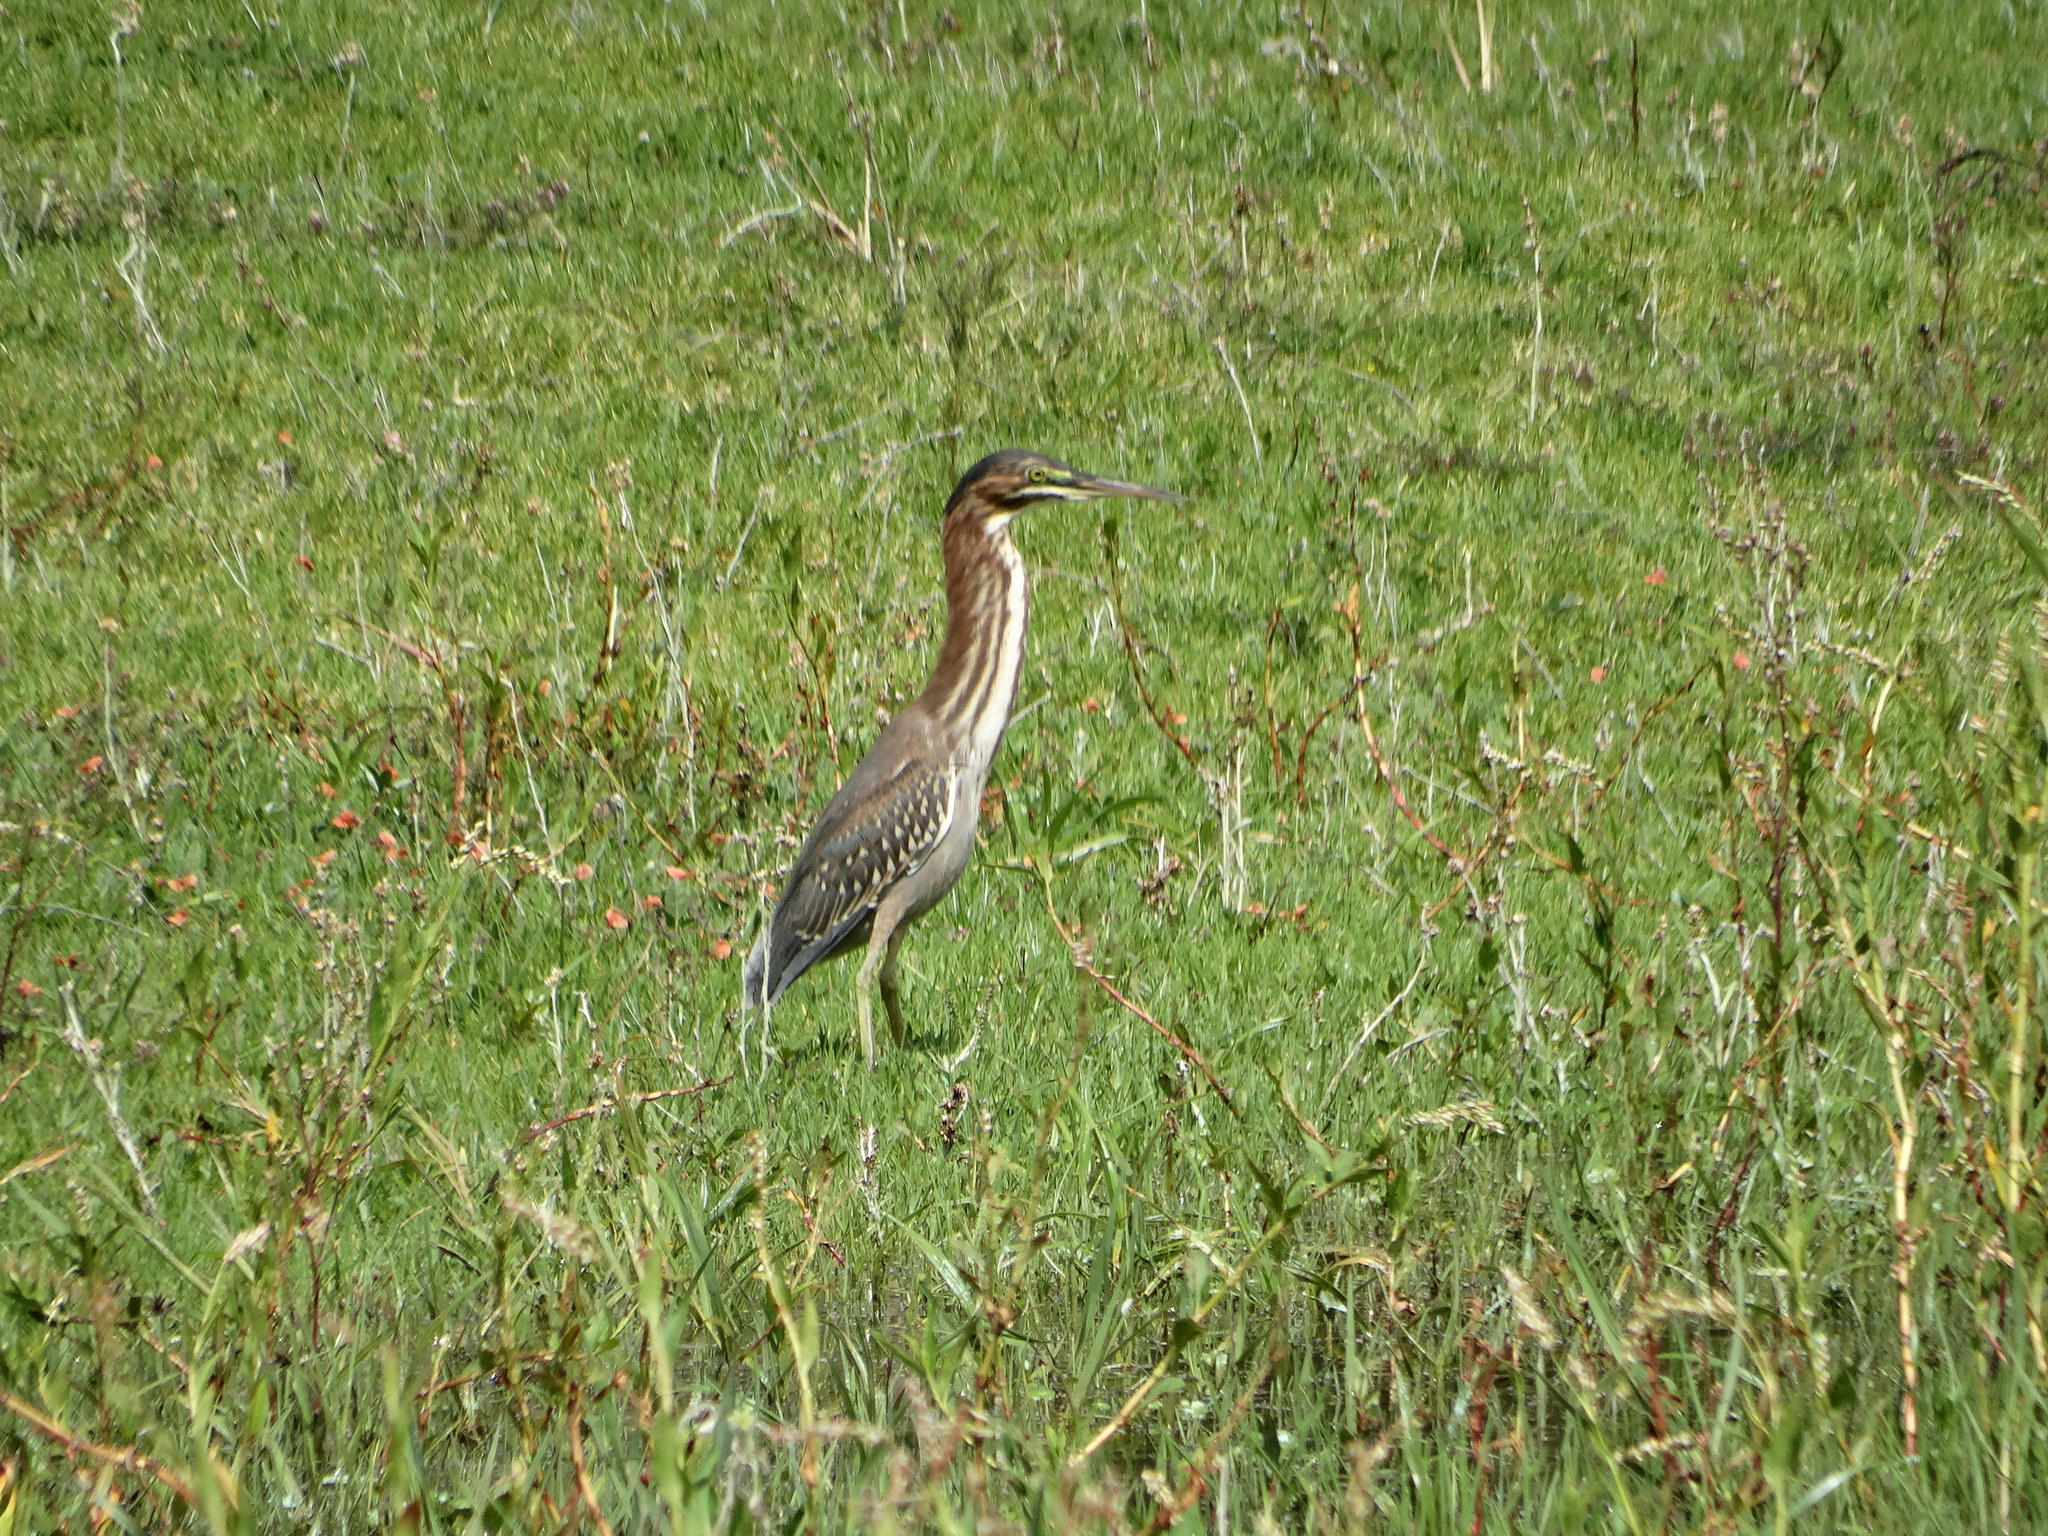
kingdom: Animalia
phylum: Chordata
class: Aves
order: Pelecaniformes
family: Ardeidae
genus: Butorides
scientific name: Butorides virescens
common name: Green heron
